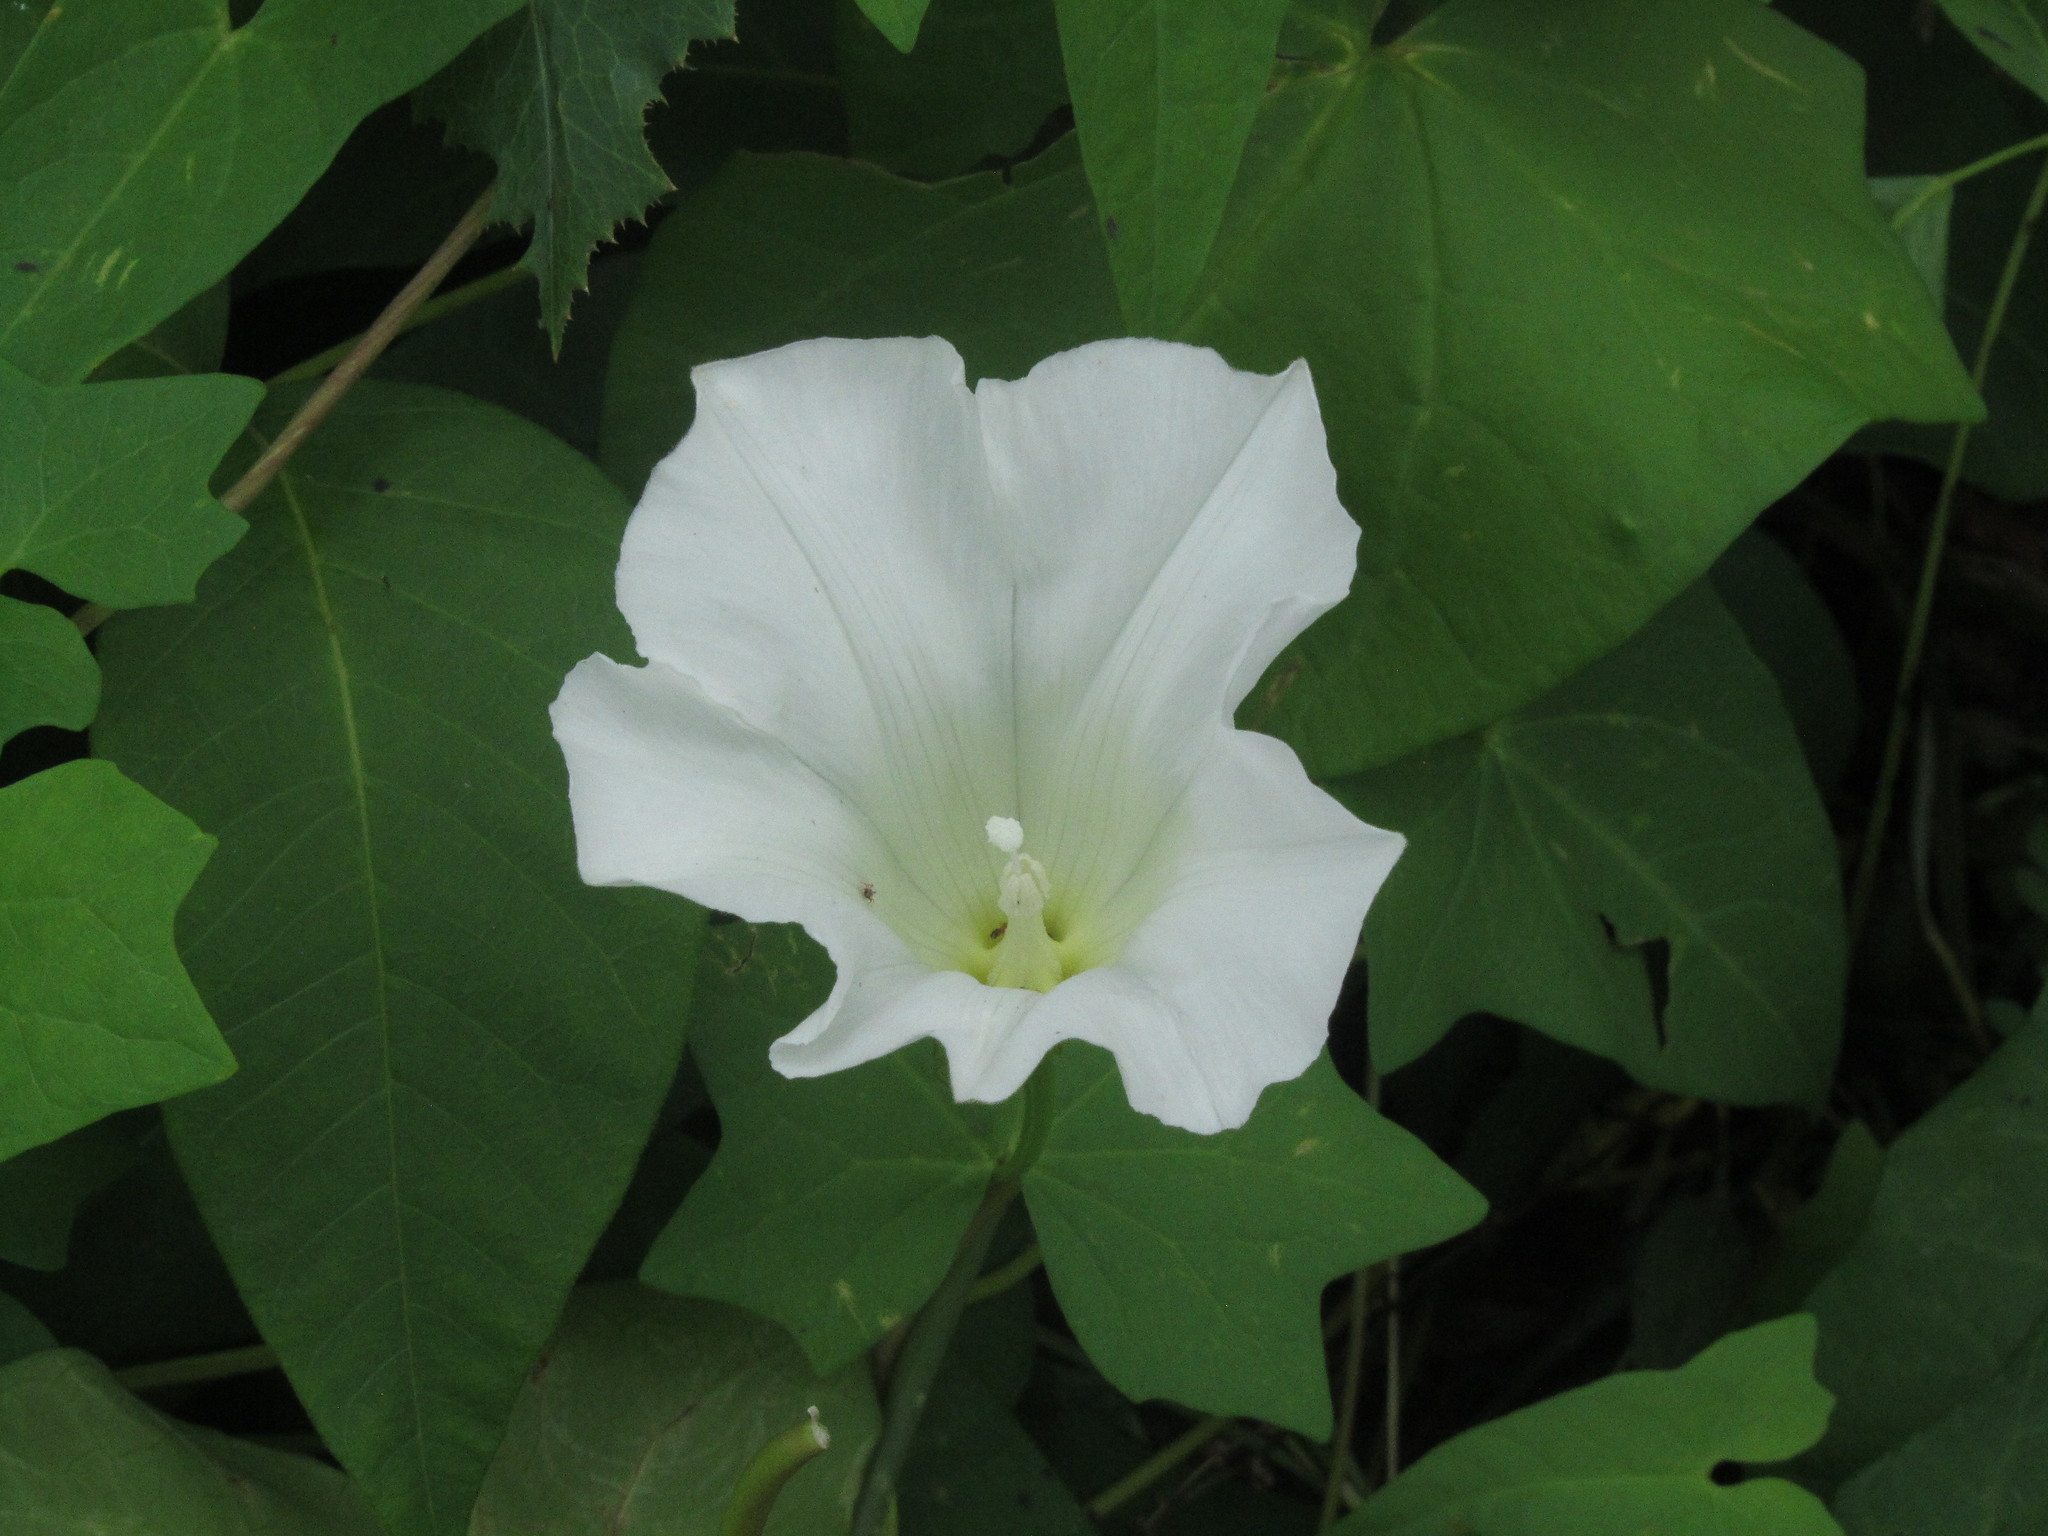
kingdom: Plantae
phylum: Tracheophyta
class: Magnoliopsida
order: Solanales
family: Convolvulaceae
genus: Calystegia
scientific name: Calystegia sepium
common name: Hedge bindweed
